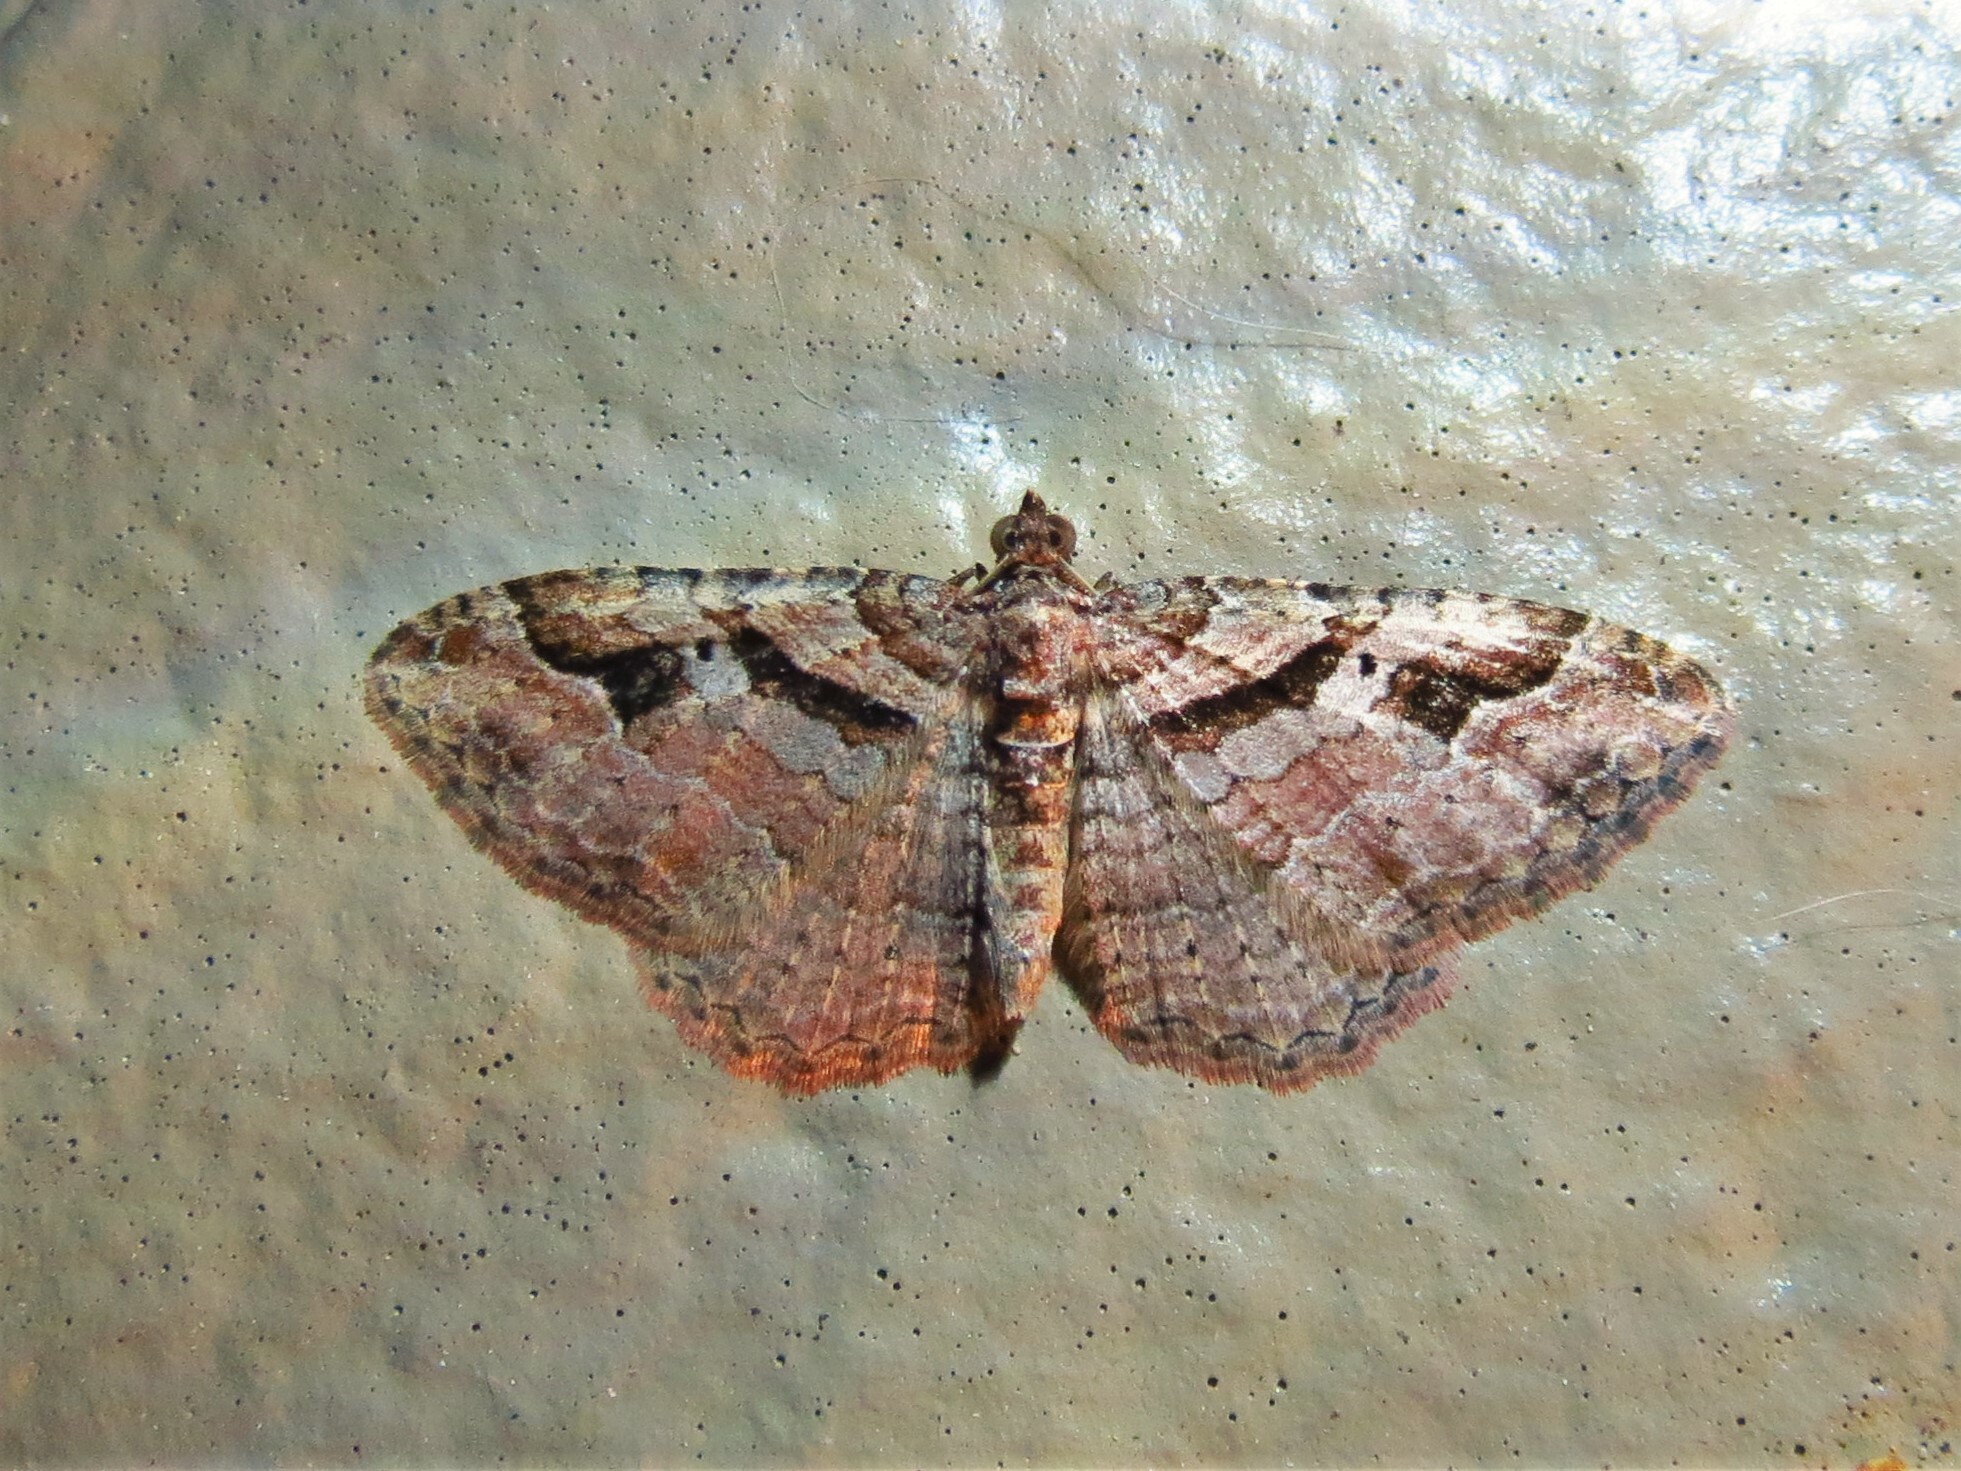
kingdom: Animalia
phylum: Arthropoda
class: Insecta
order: Lepidoptera
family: Geometridae
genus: Costaconvexa
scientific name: Costaconvexa centrostrigaria
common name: Bent-line carpet
